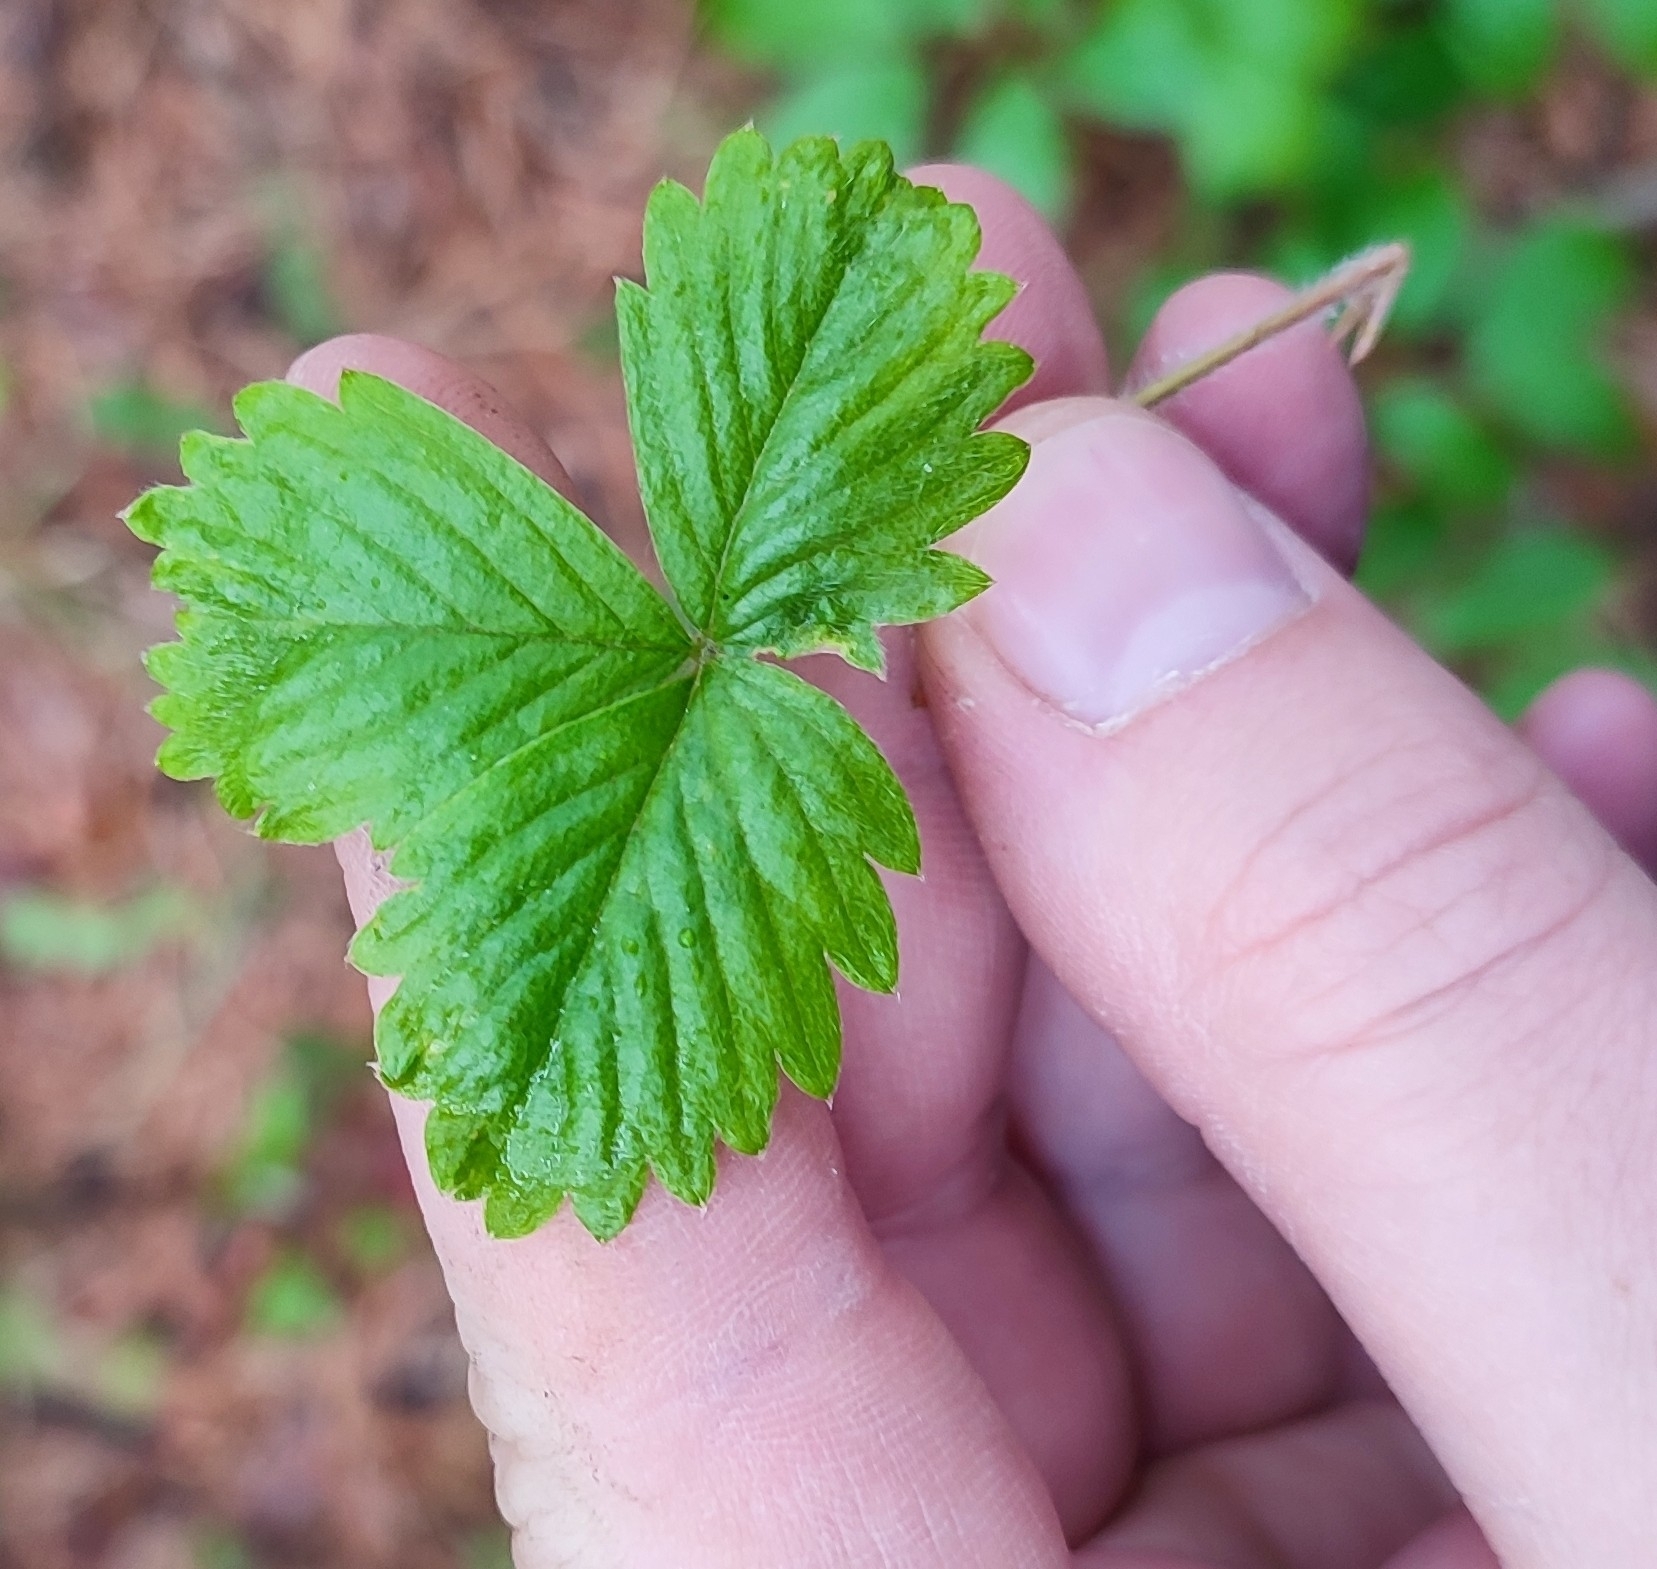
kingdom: Plantae
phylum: Tracheophyta
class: Magnoliopsida
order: Rosales
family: Rosaceae
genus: Fragaria
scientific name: Fragaria vesca
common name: Wild strawberry
